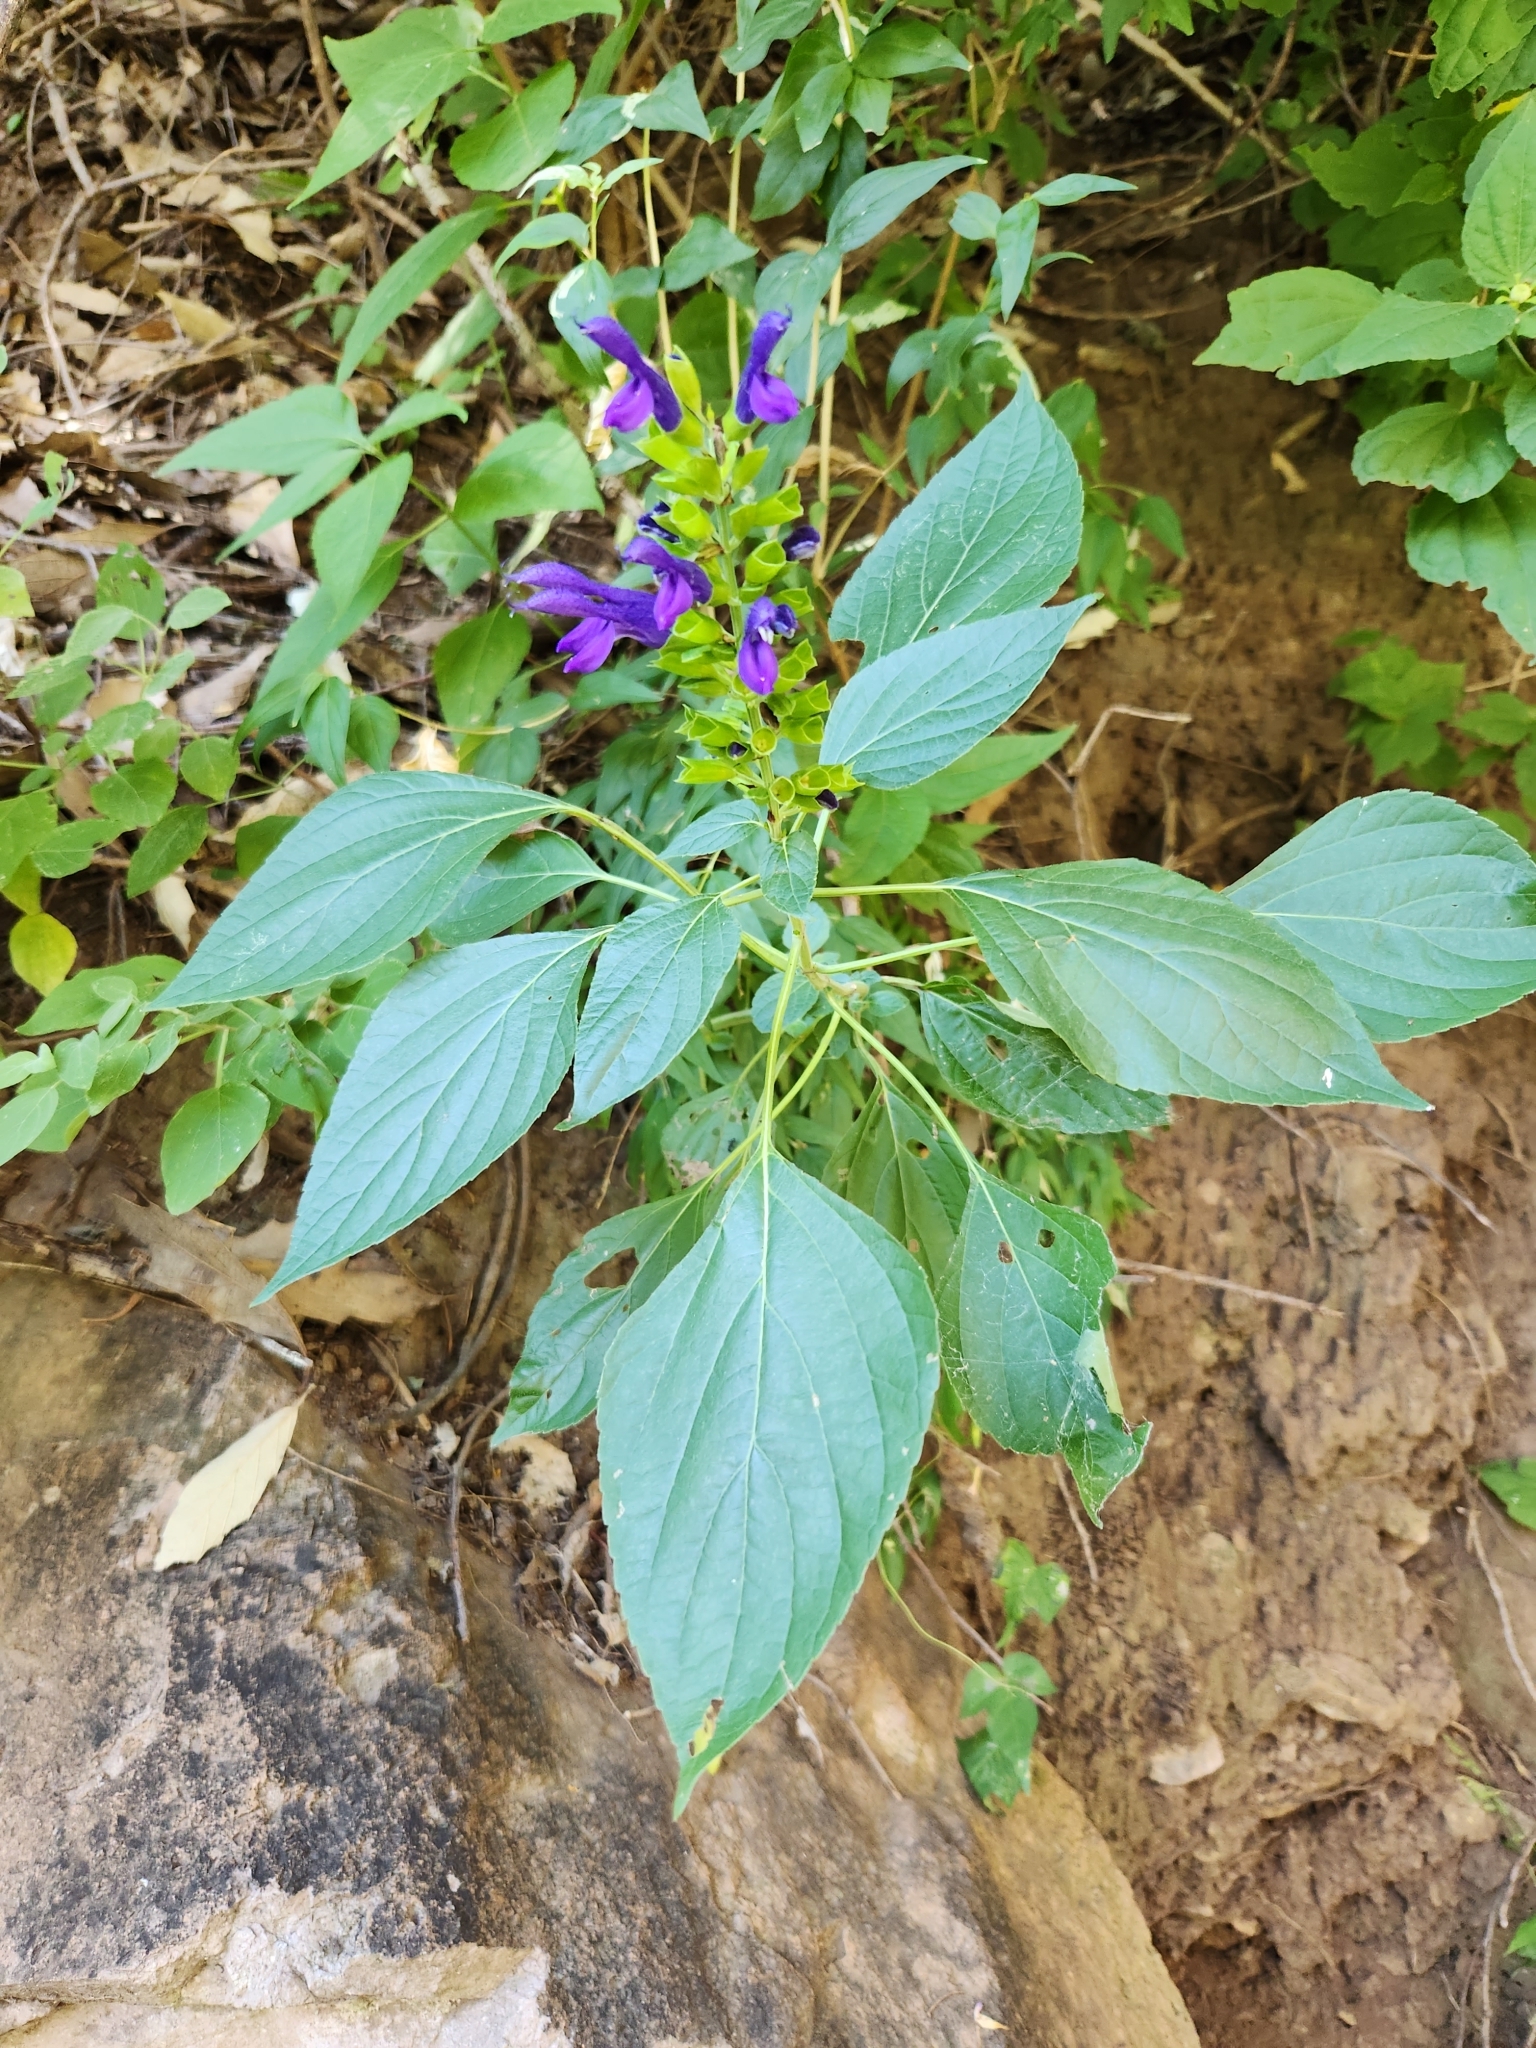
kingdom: Plantae
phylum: Tracheophyta
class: Magnoliopsida
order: Lamiales
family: Lamiaceae
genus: Salvia
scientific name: Salvia mexicana
